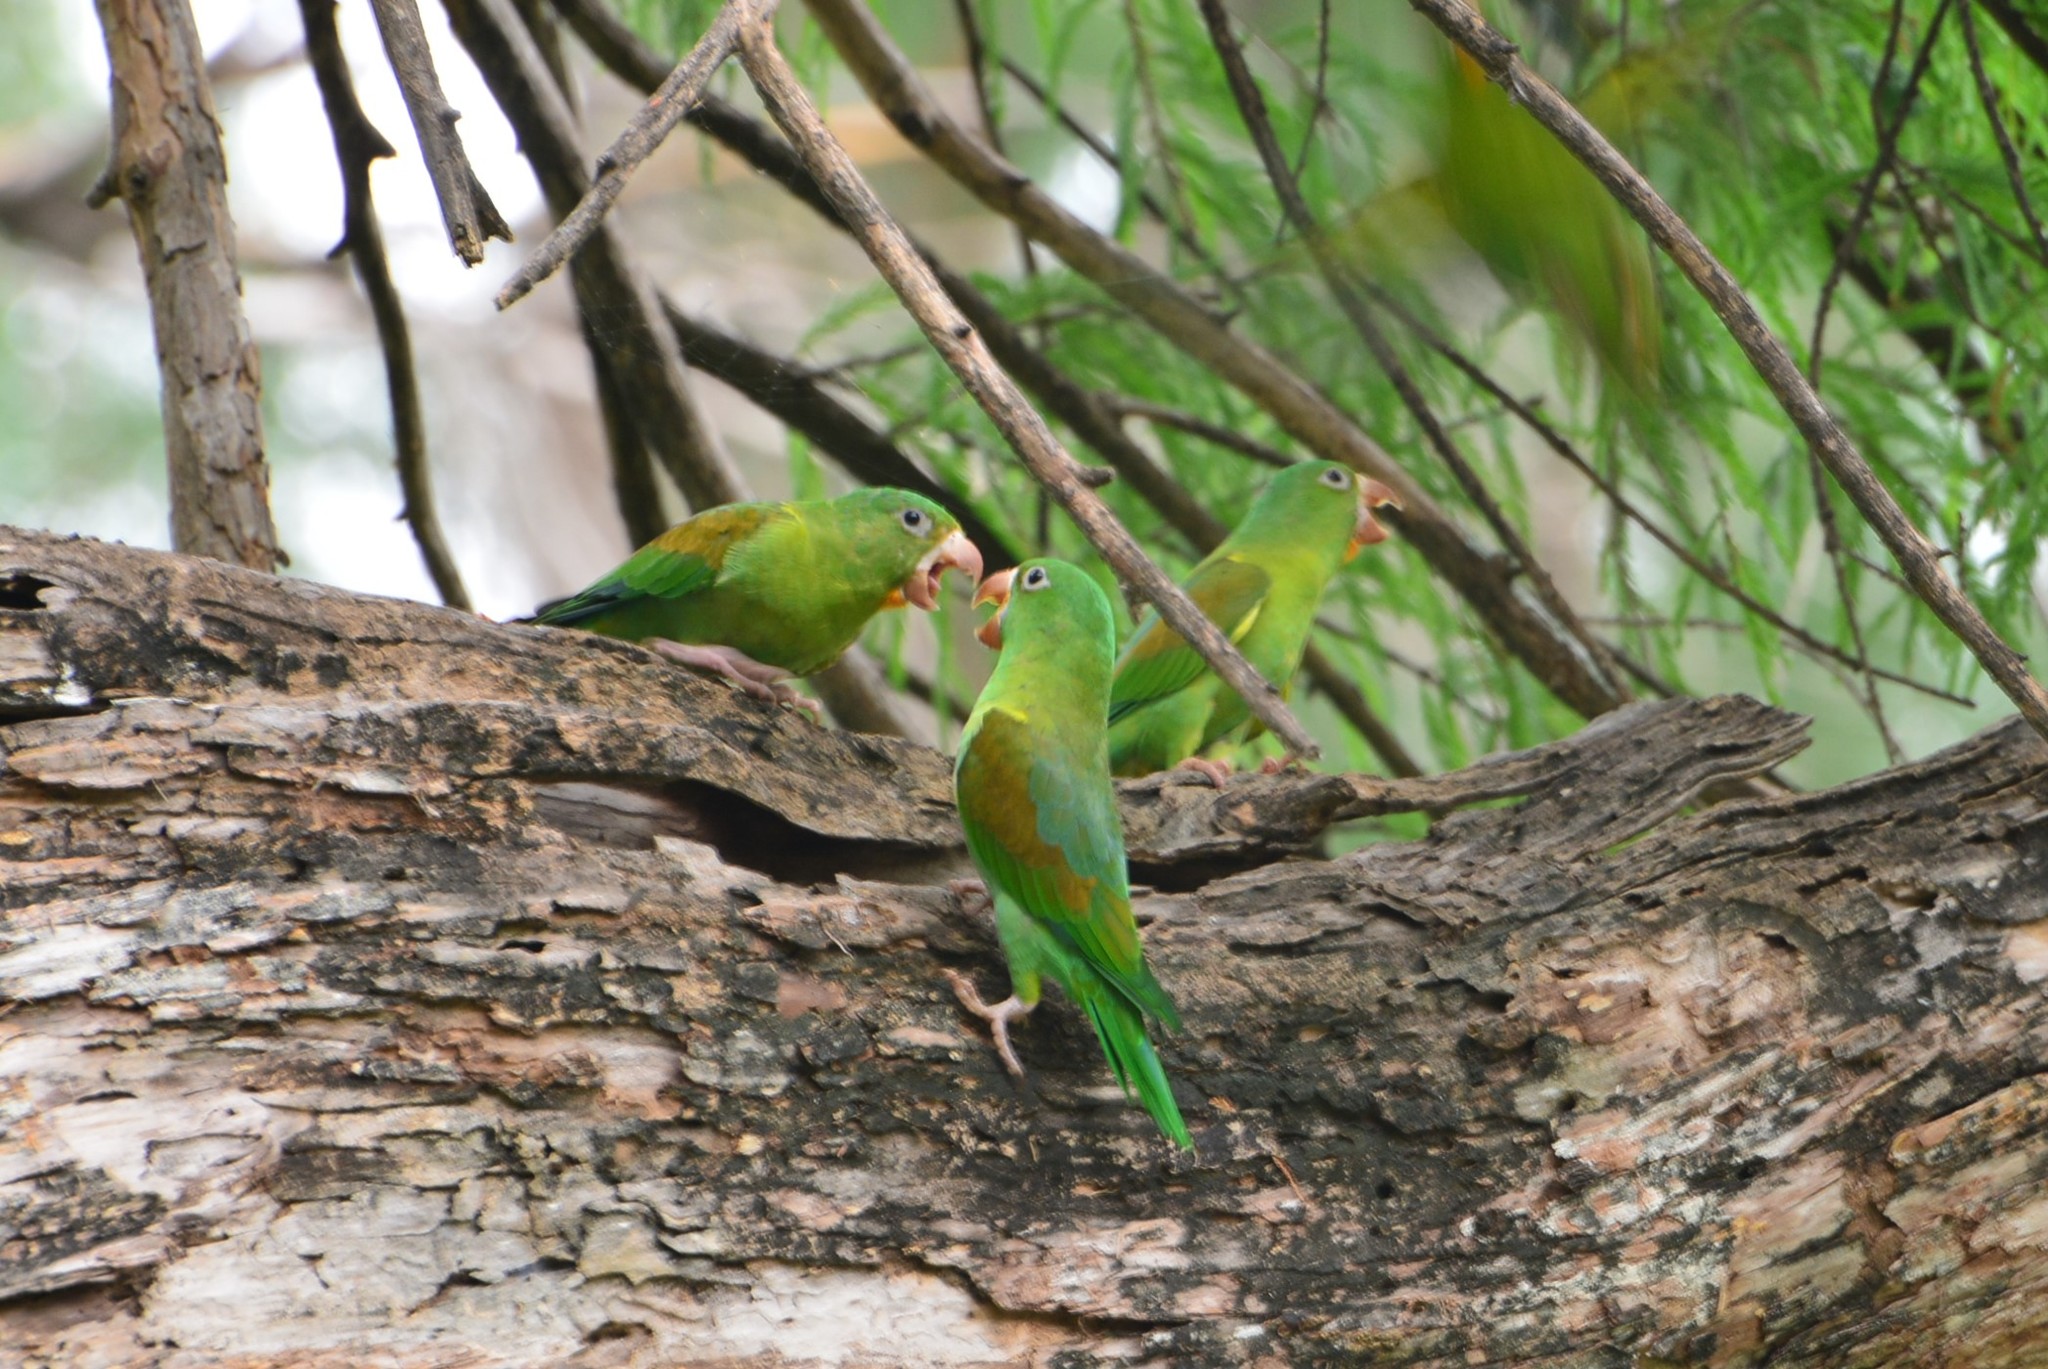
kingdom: Animalia
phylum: Chordata
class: Aves
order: Psittaciformes
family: Psittacidae
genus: Brotogeris
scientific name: Brotogeris jugularis
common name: Orange-chinned parakeet
